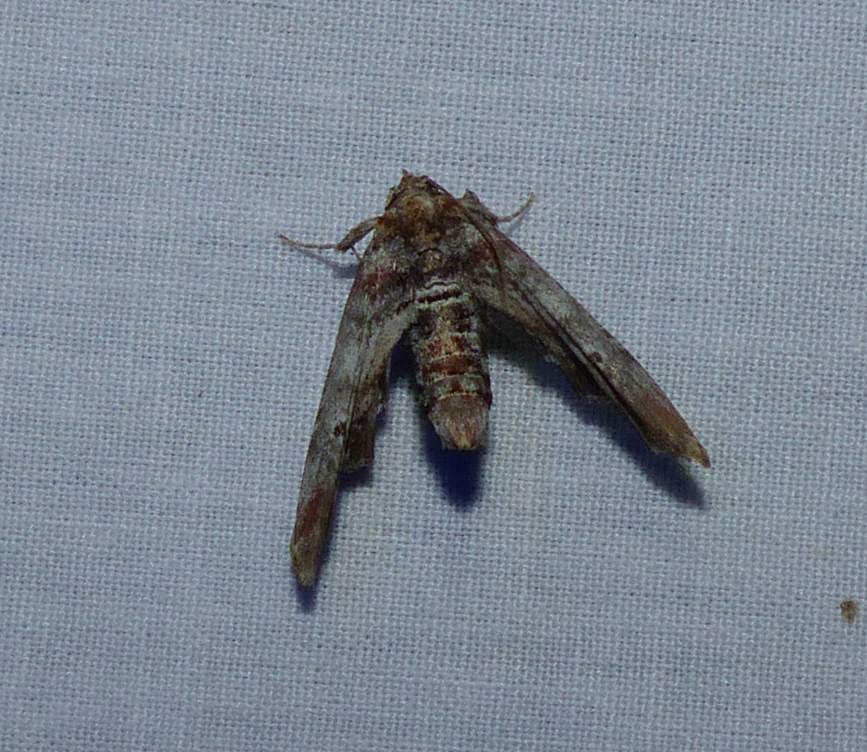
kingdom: Animalia
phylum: Arthropoda
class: Insecta
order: Lepidoptera
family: Euteliidae
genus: Marathyssa
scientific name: Marathyssa inficita
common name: Dark marathyssa moth
